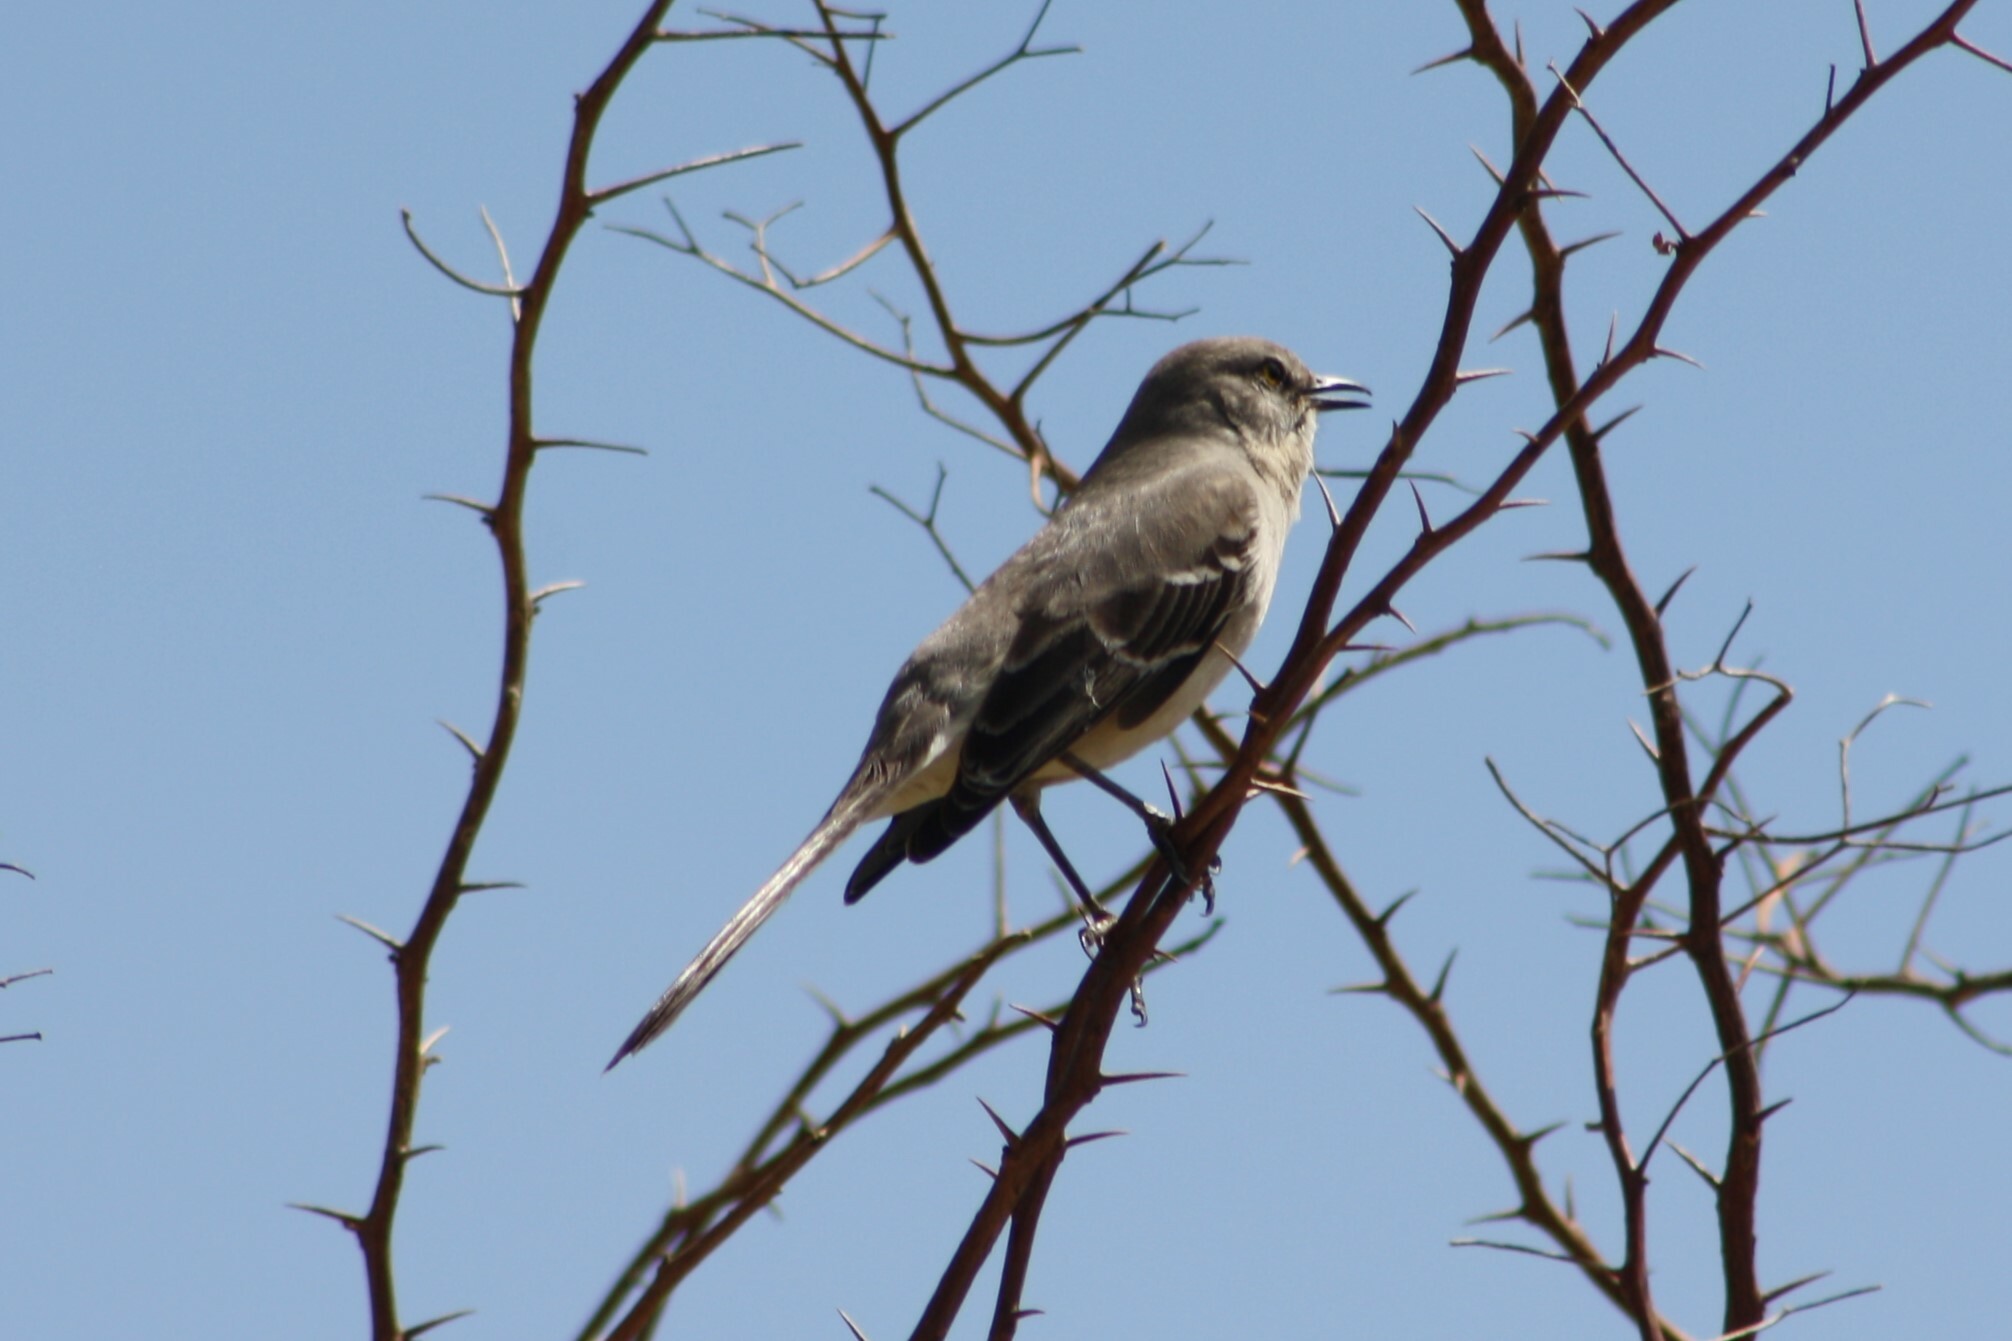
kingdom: Animalia
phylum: Chordata
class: Aves
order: Passeriformes
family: Mimidae
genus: Mimus
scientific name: Mimus polyglottos
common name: Northern mockingbird
